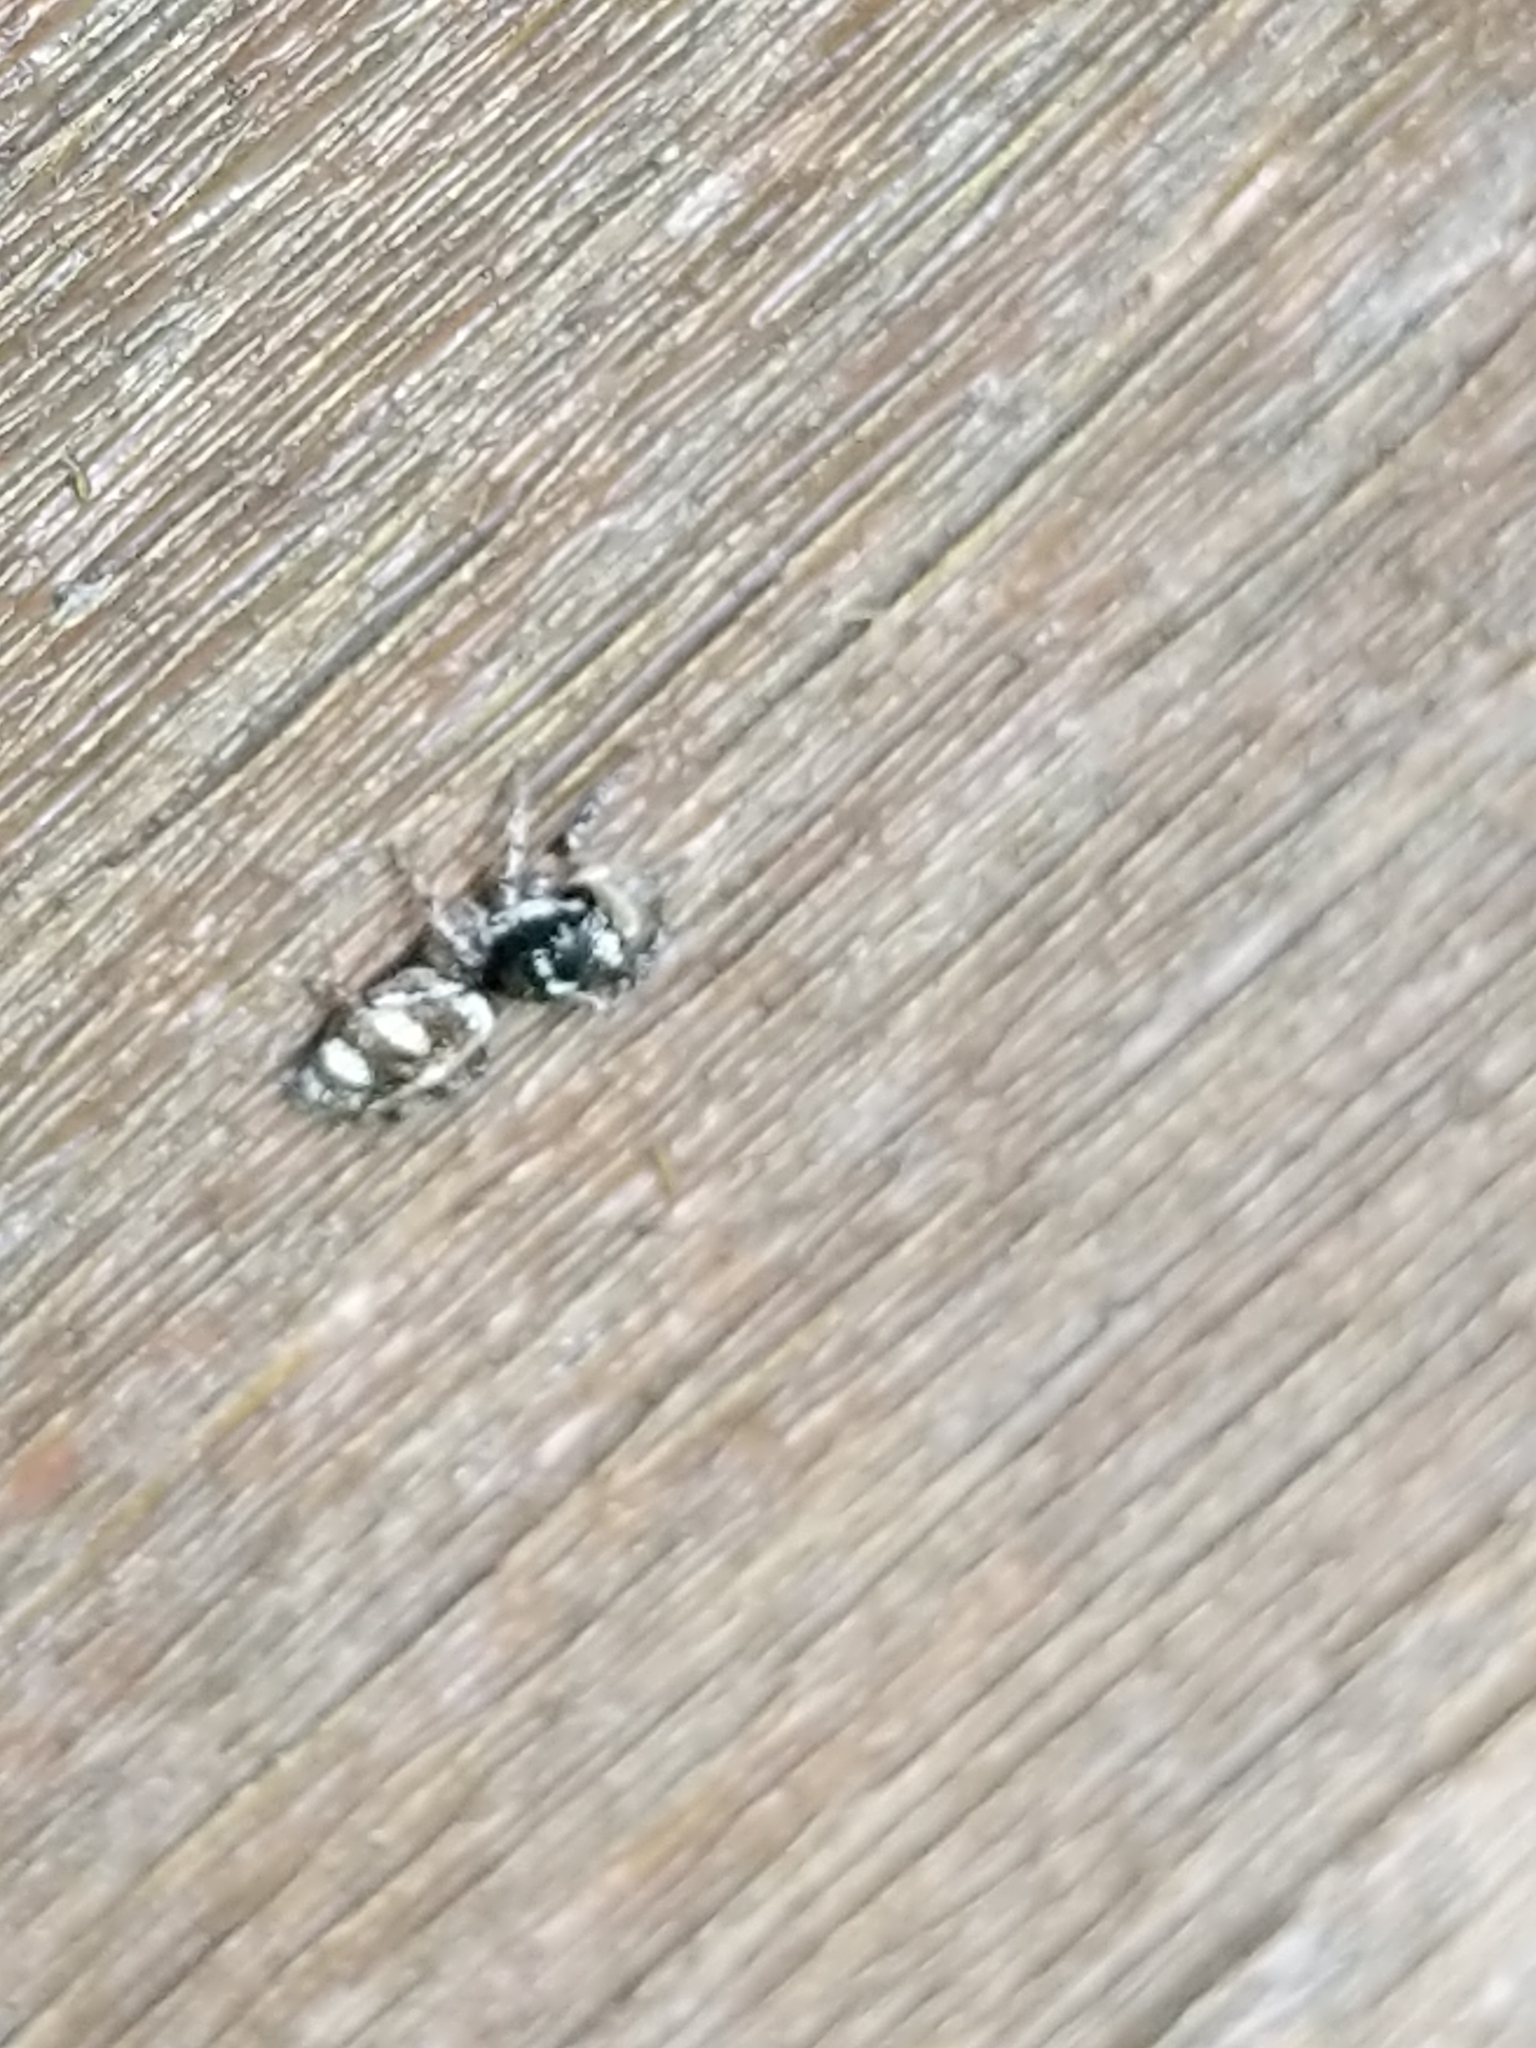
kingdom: Animalia
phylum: Arthropoda
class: Arachnida
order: Araneae
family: Salticidae
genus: Salticus
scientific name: Salticus scenicus
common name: Zebra jumper
